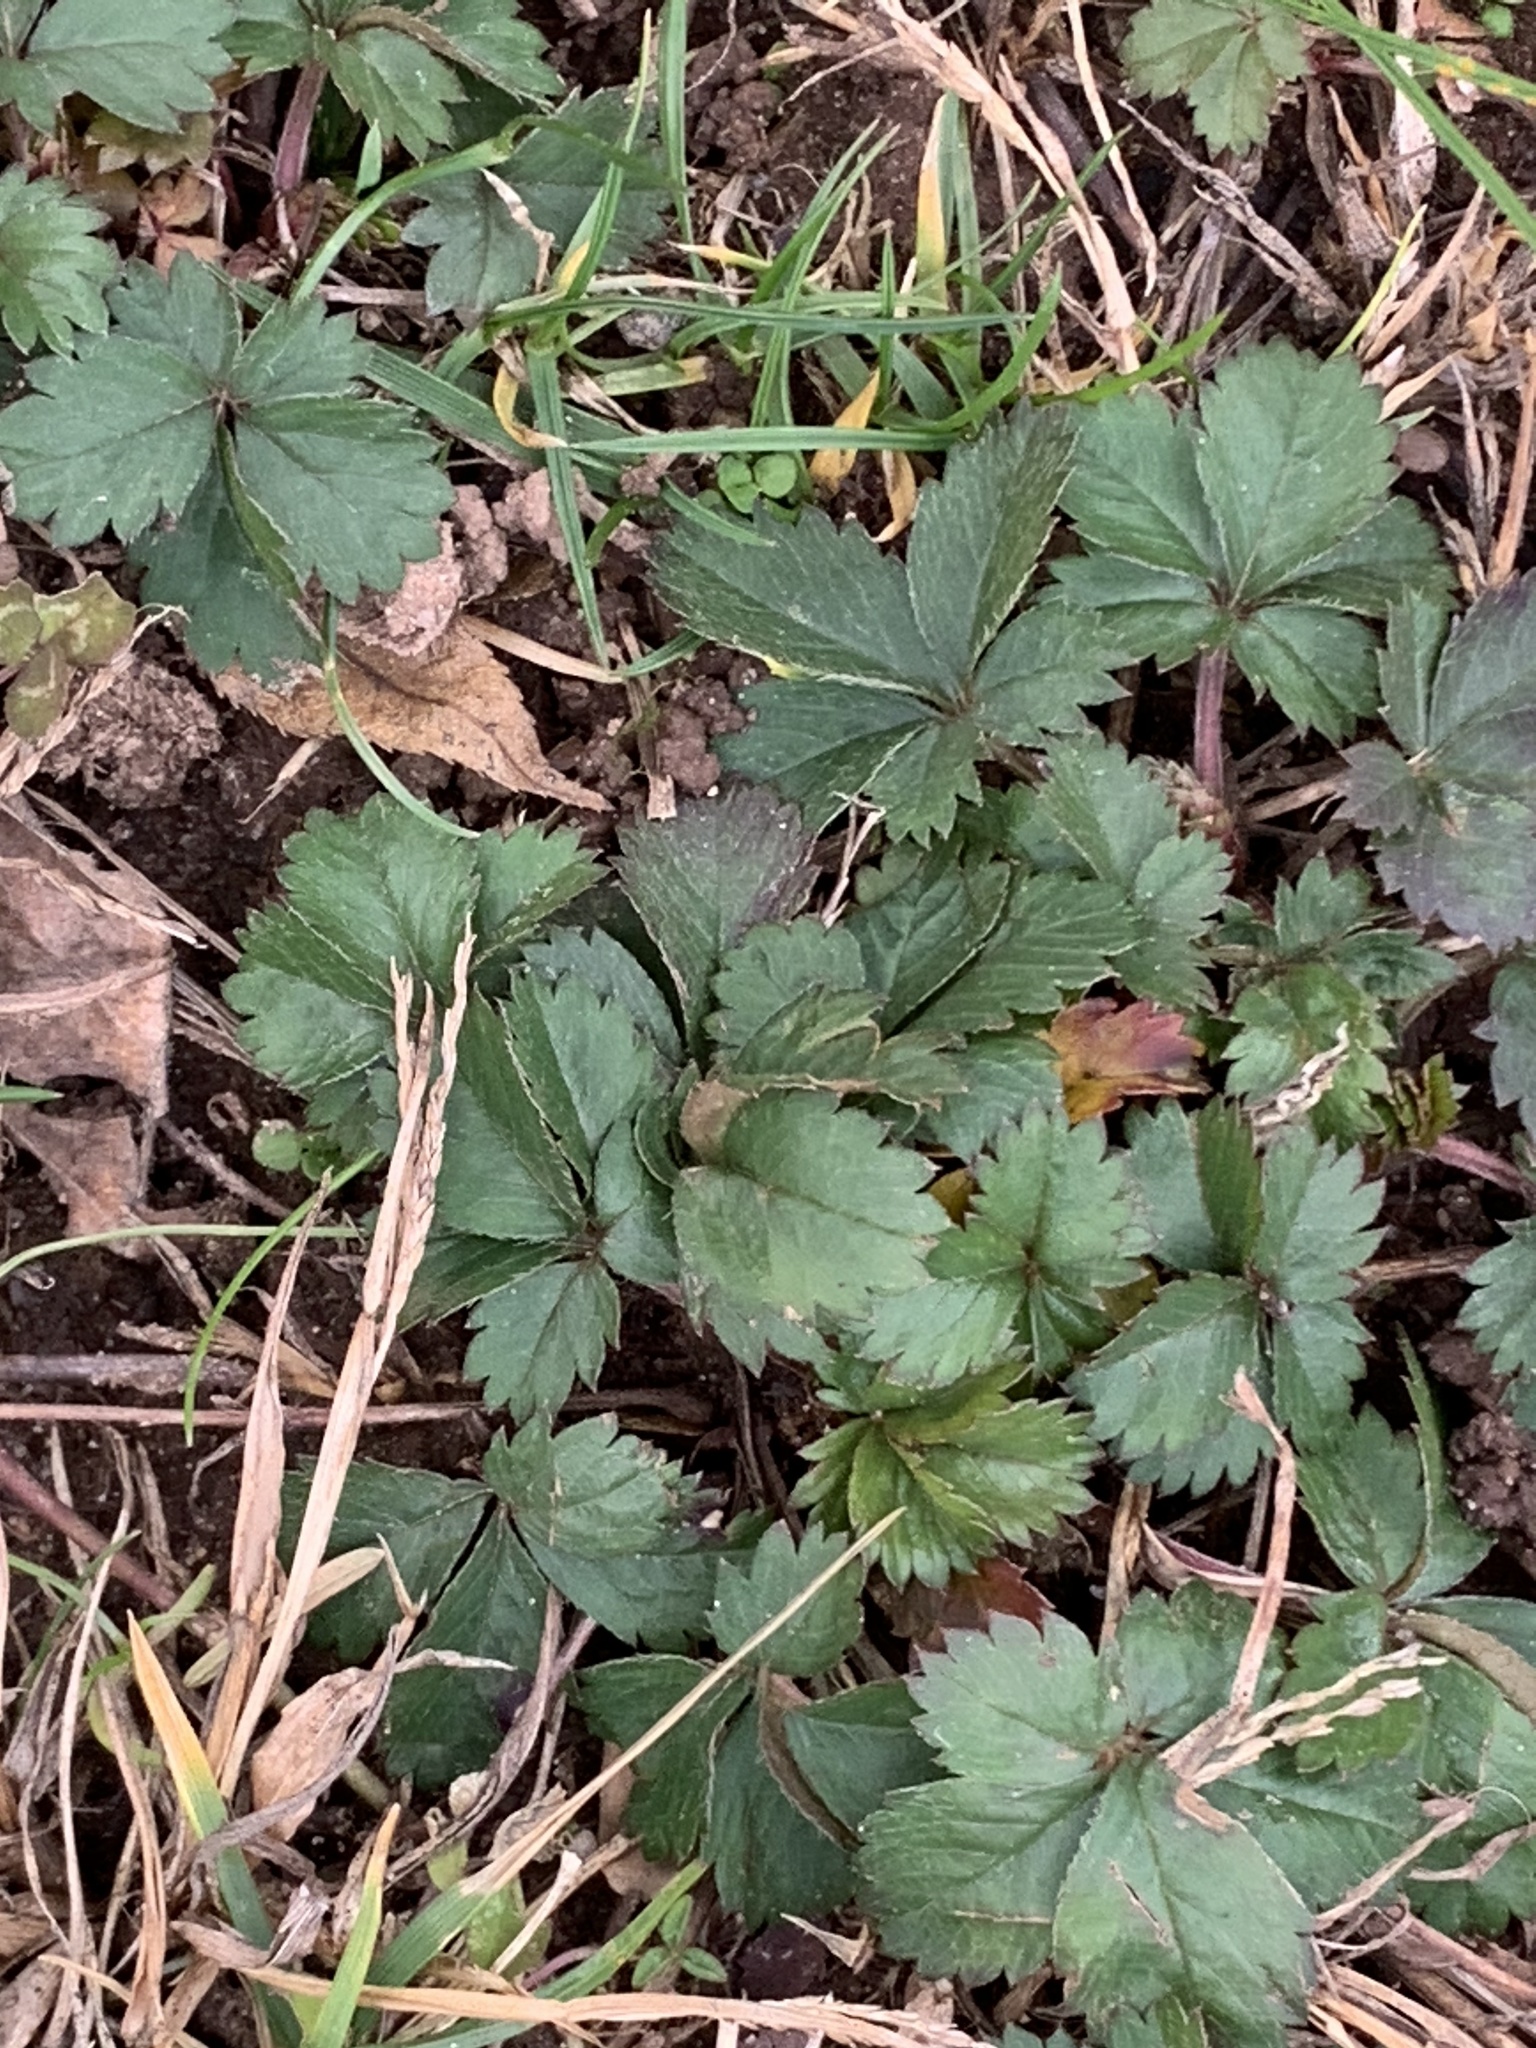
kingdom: Plantae
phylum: Tracheophyta
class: Magnoliopsida
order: Rosales
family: Rosaceae
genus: Potentilla
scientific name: Potentilla canadensis
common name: Canada cinquefoil
